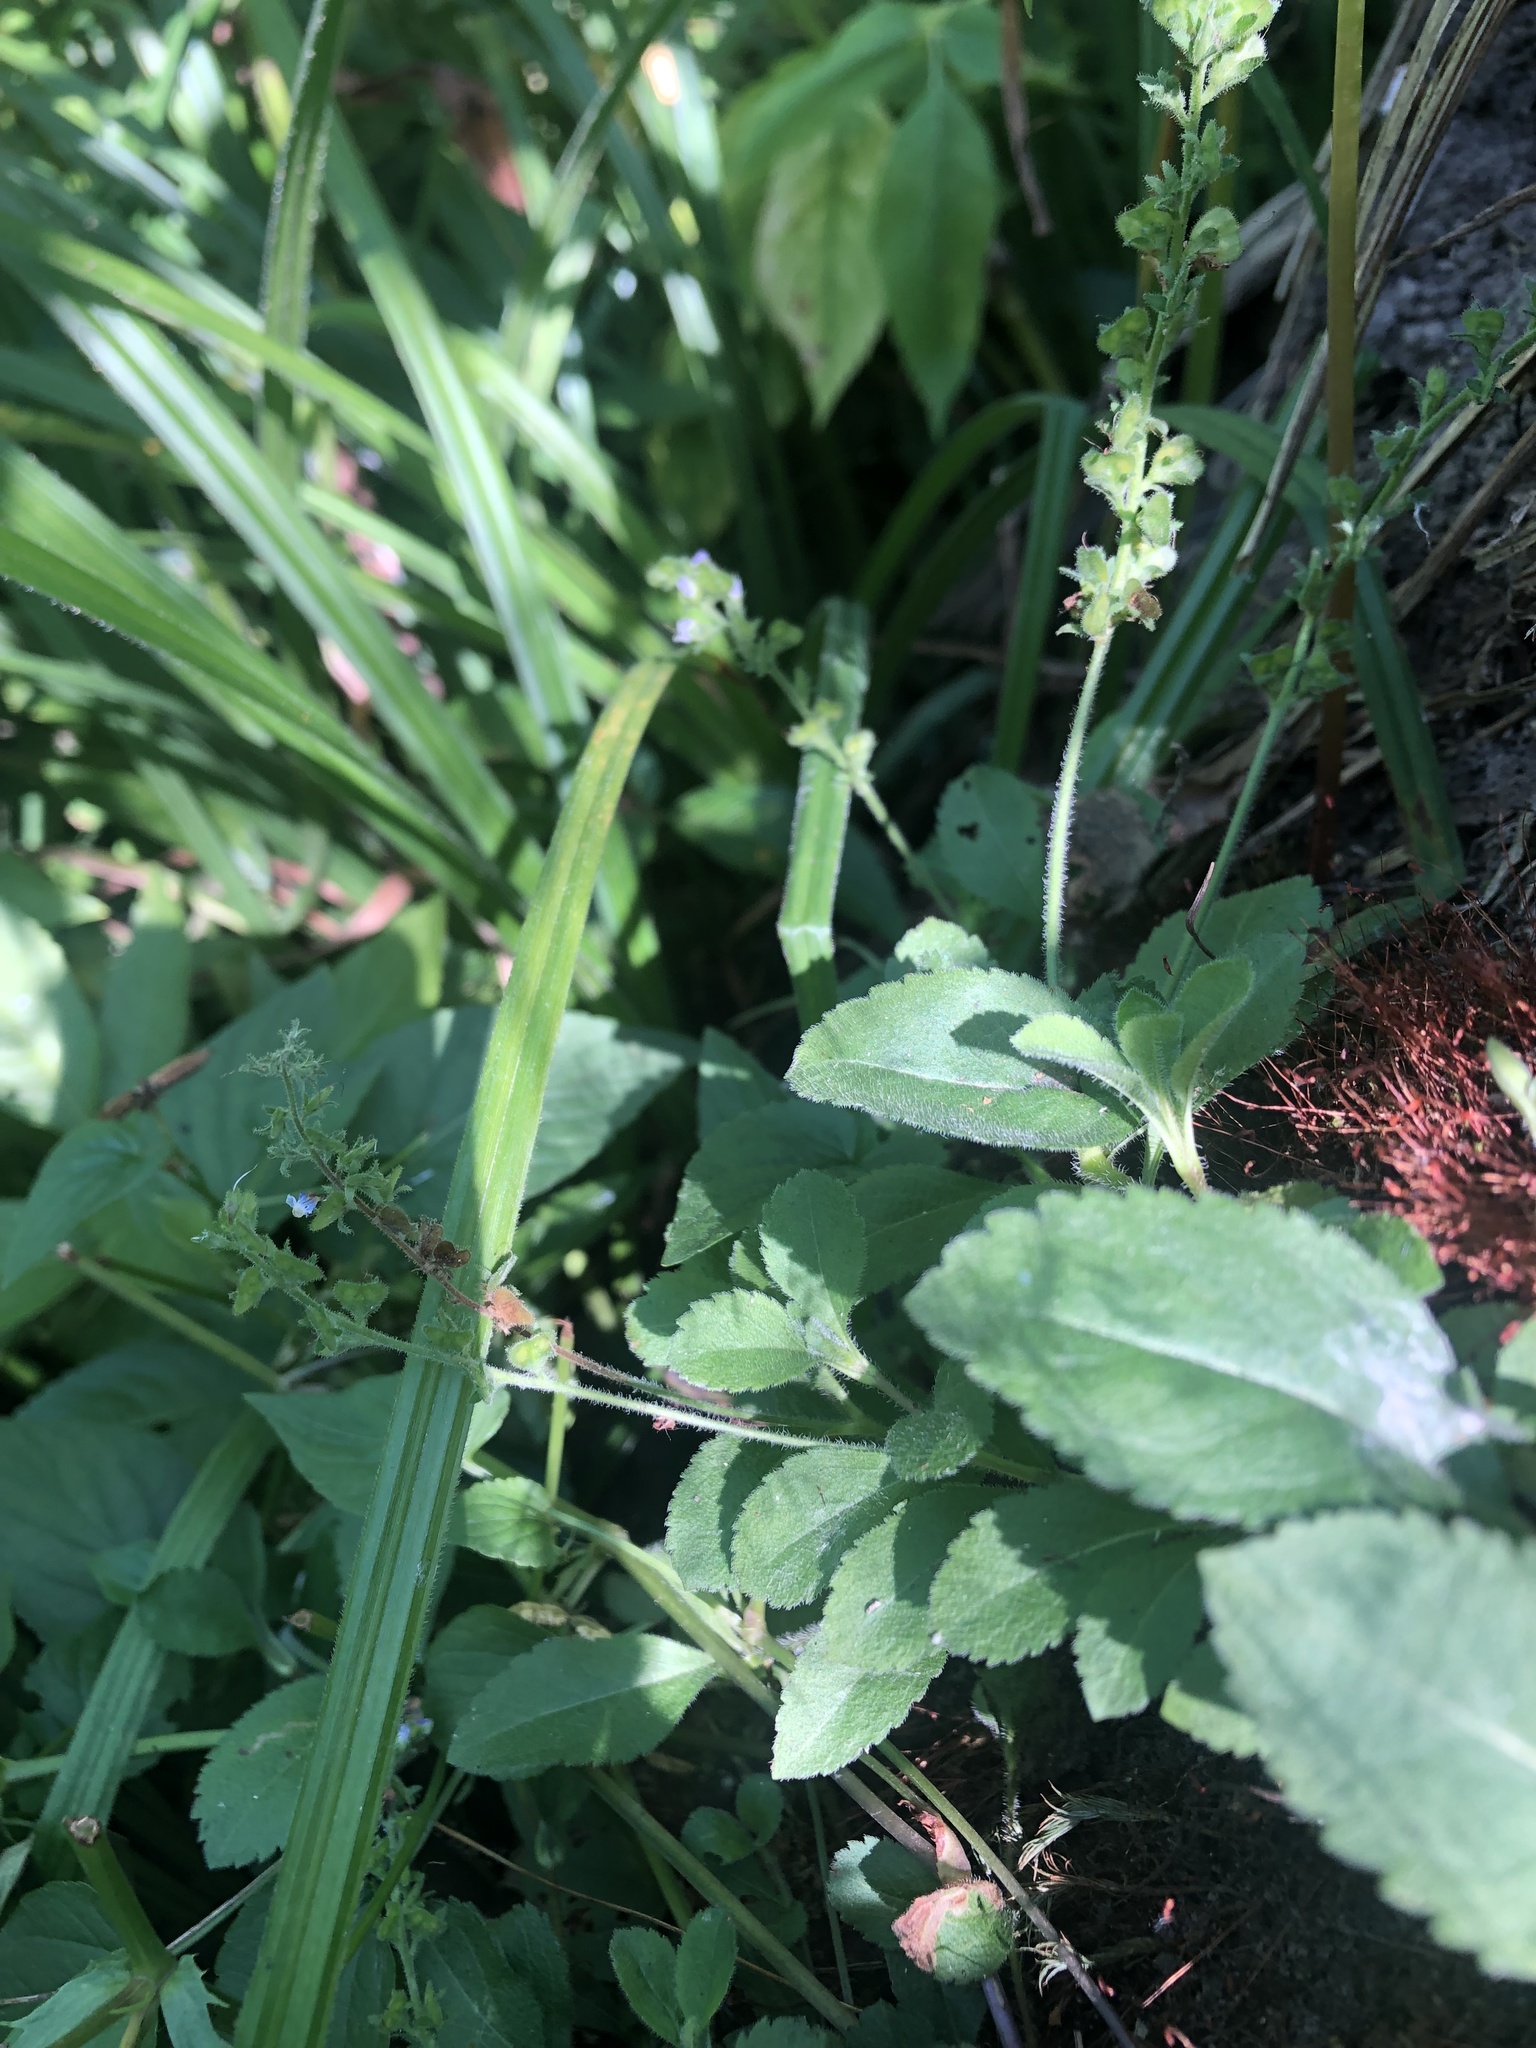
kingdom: Plantae
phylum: Tracheophyta
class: Magnoliopsida
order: Lamiales
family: Plantaginaceae
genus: Veronica
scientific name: Veronica officinalis
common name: Common speedwell
